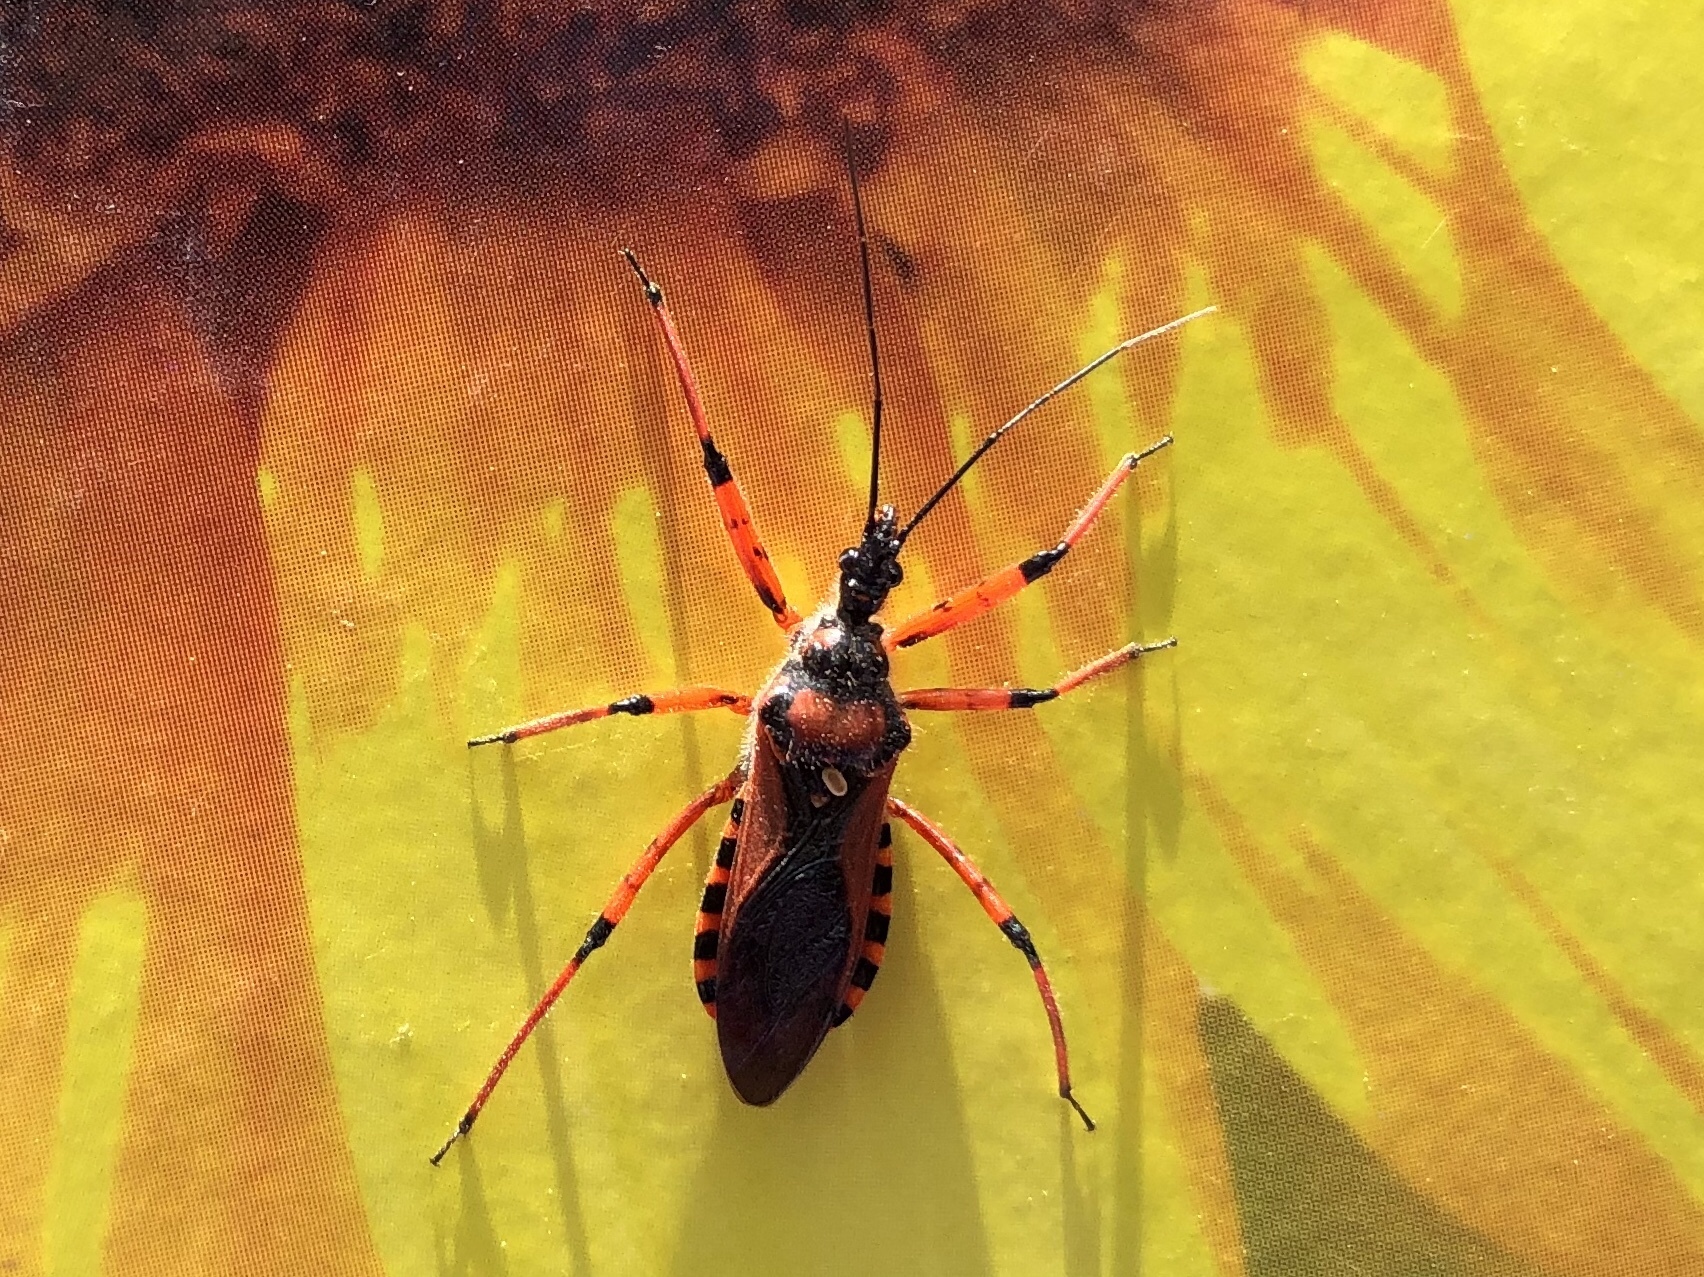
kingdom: Animalia
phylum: Arthropoda
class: Insecta
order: Hemiptera
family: Reduviidae
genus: Rhynocoris
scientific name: Rhynocoris iracundus
